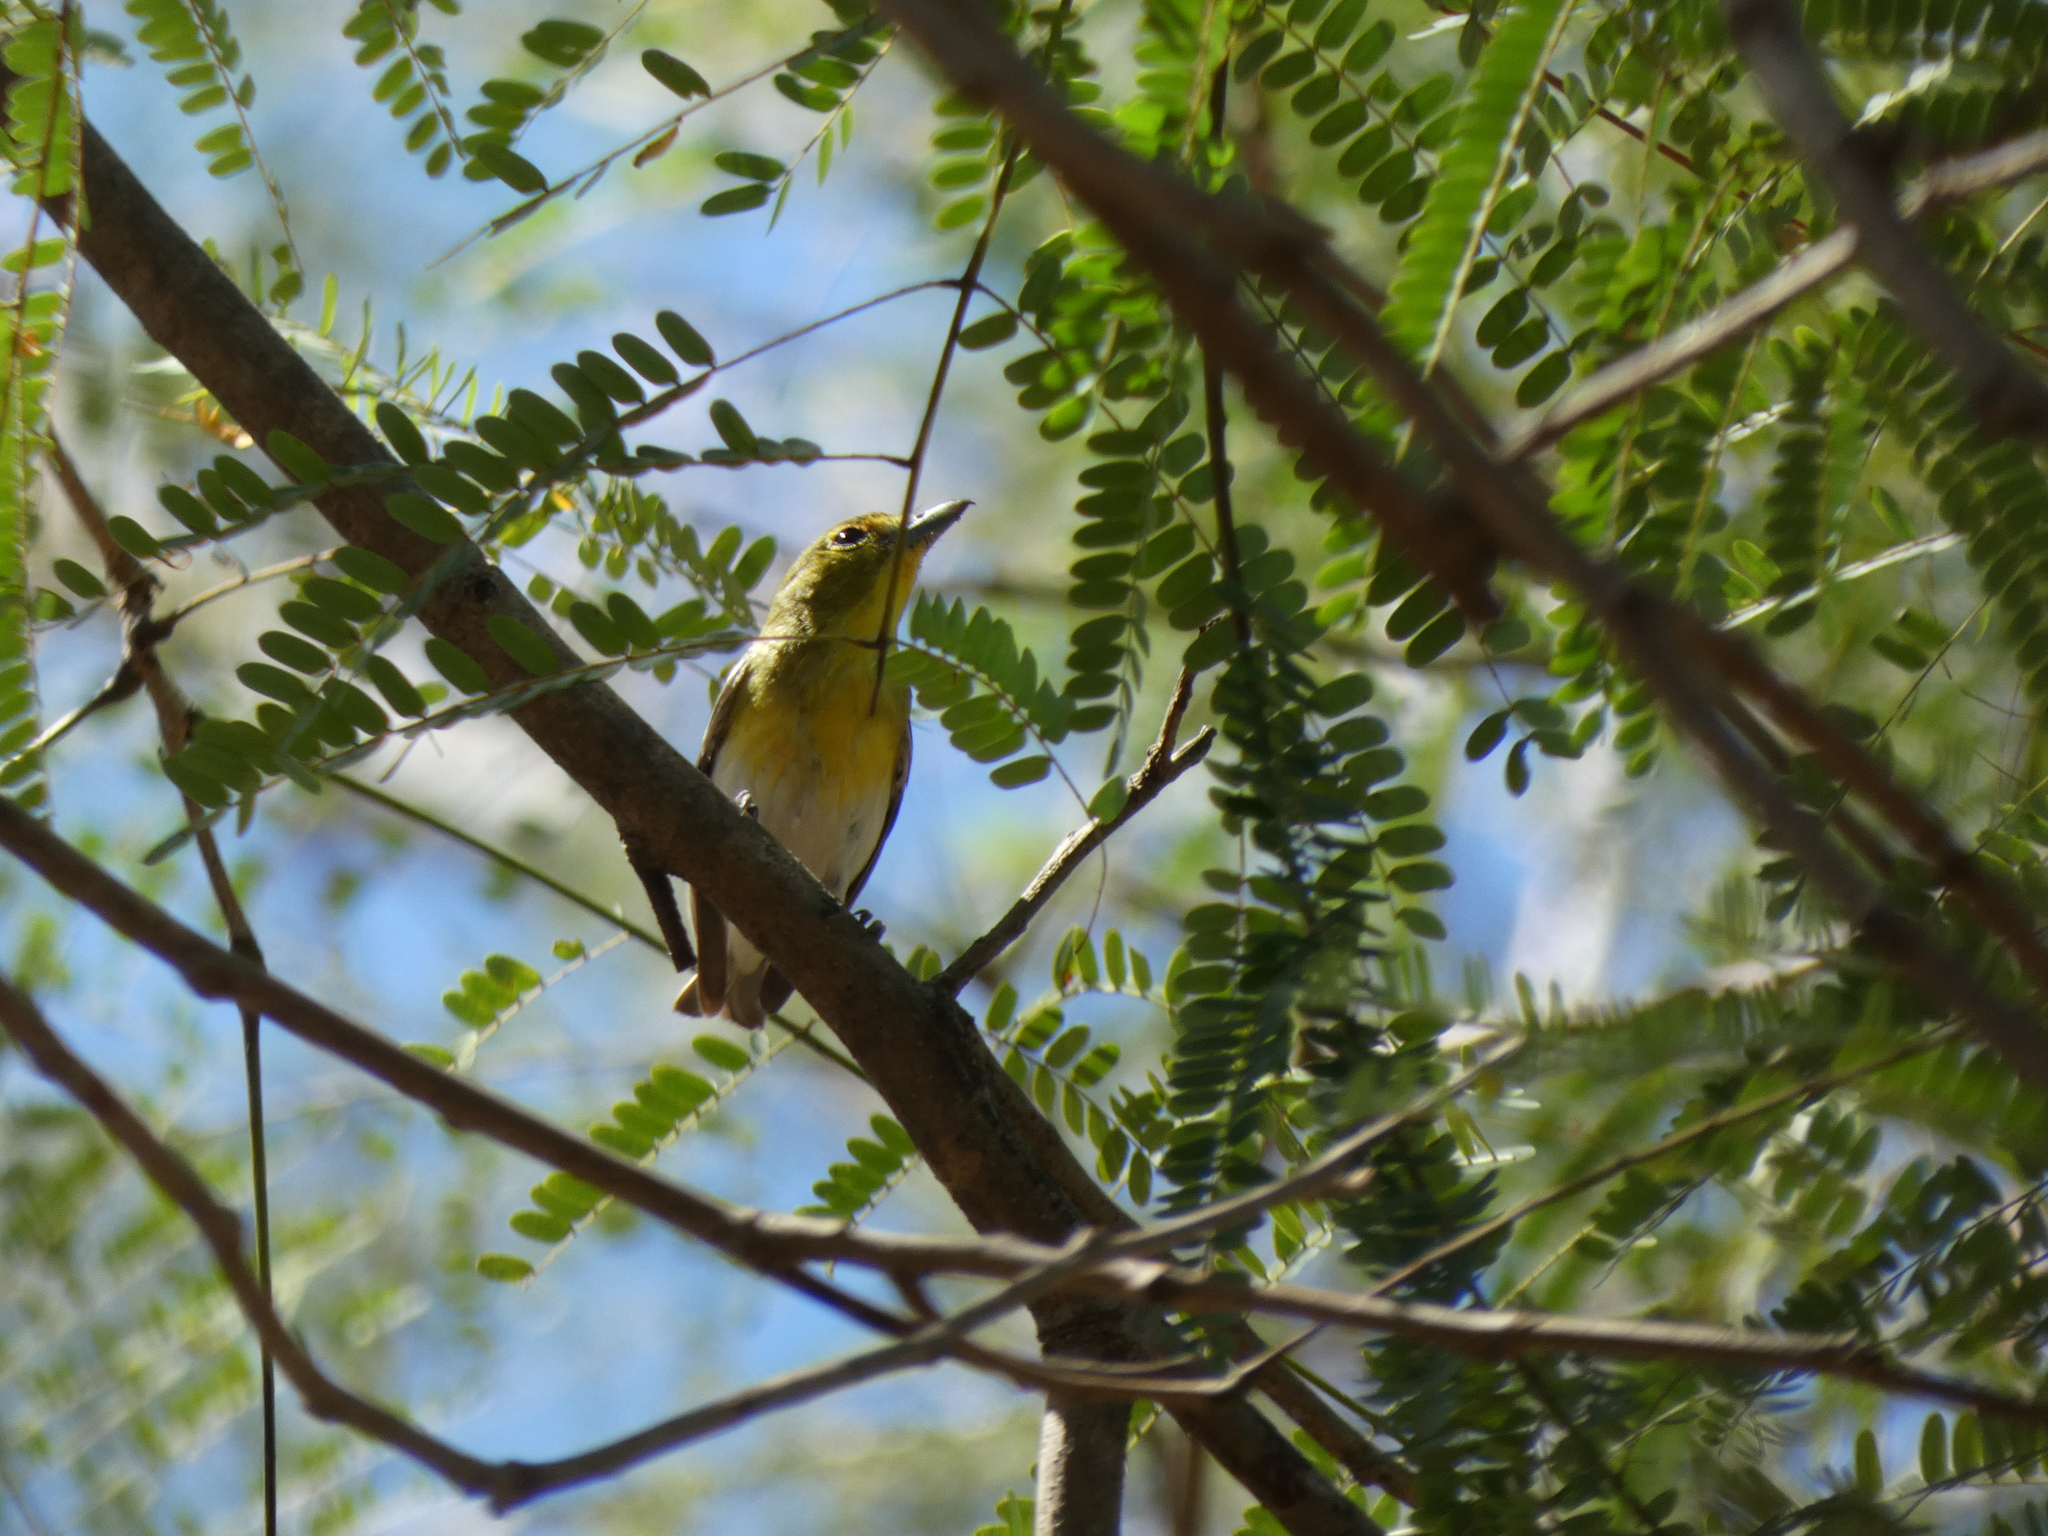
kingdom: Animalia
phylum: Chordata
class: Aves
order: Passeriformes
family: Vireonidae
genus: Vireo
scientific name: Vireo flavifrons
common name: Yellow-throated vireo
